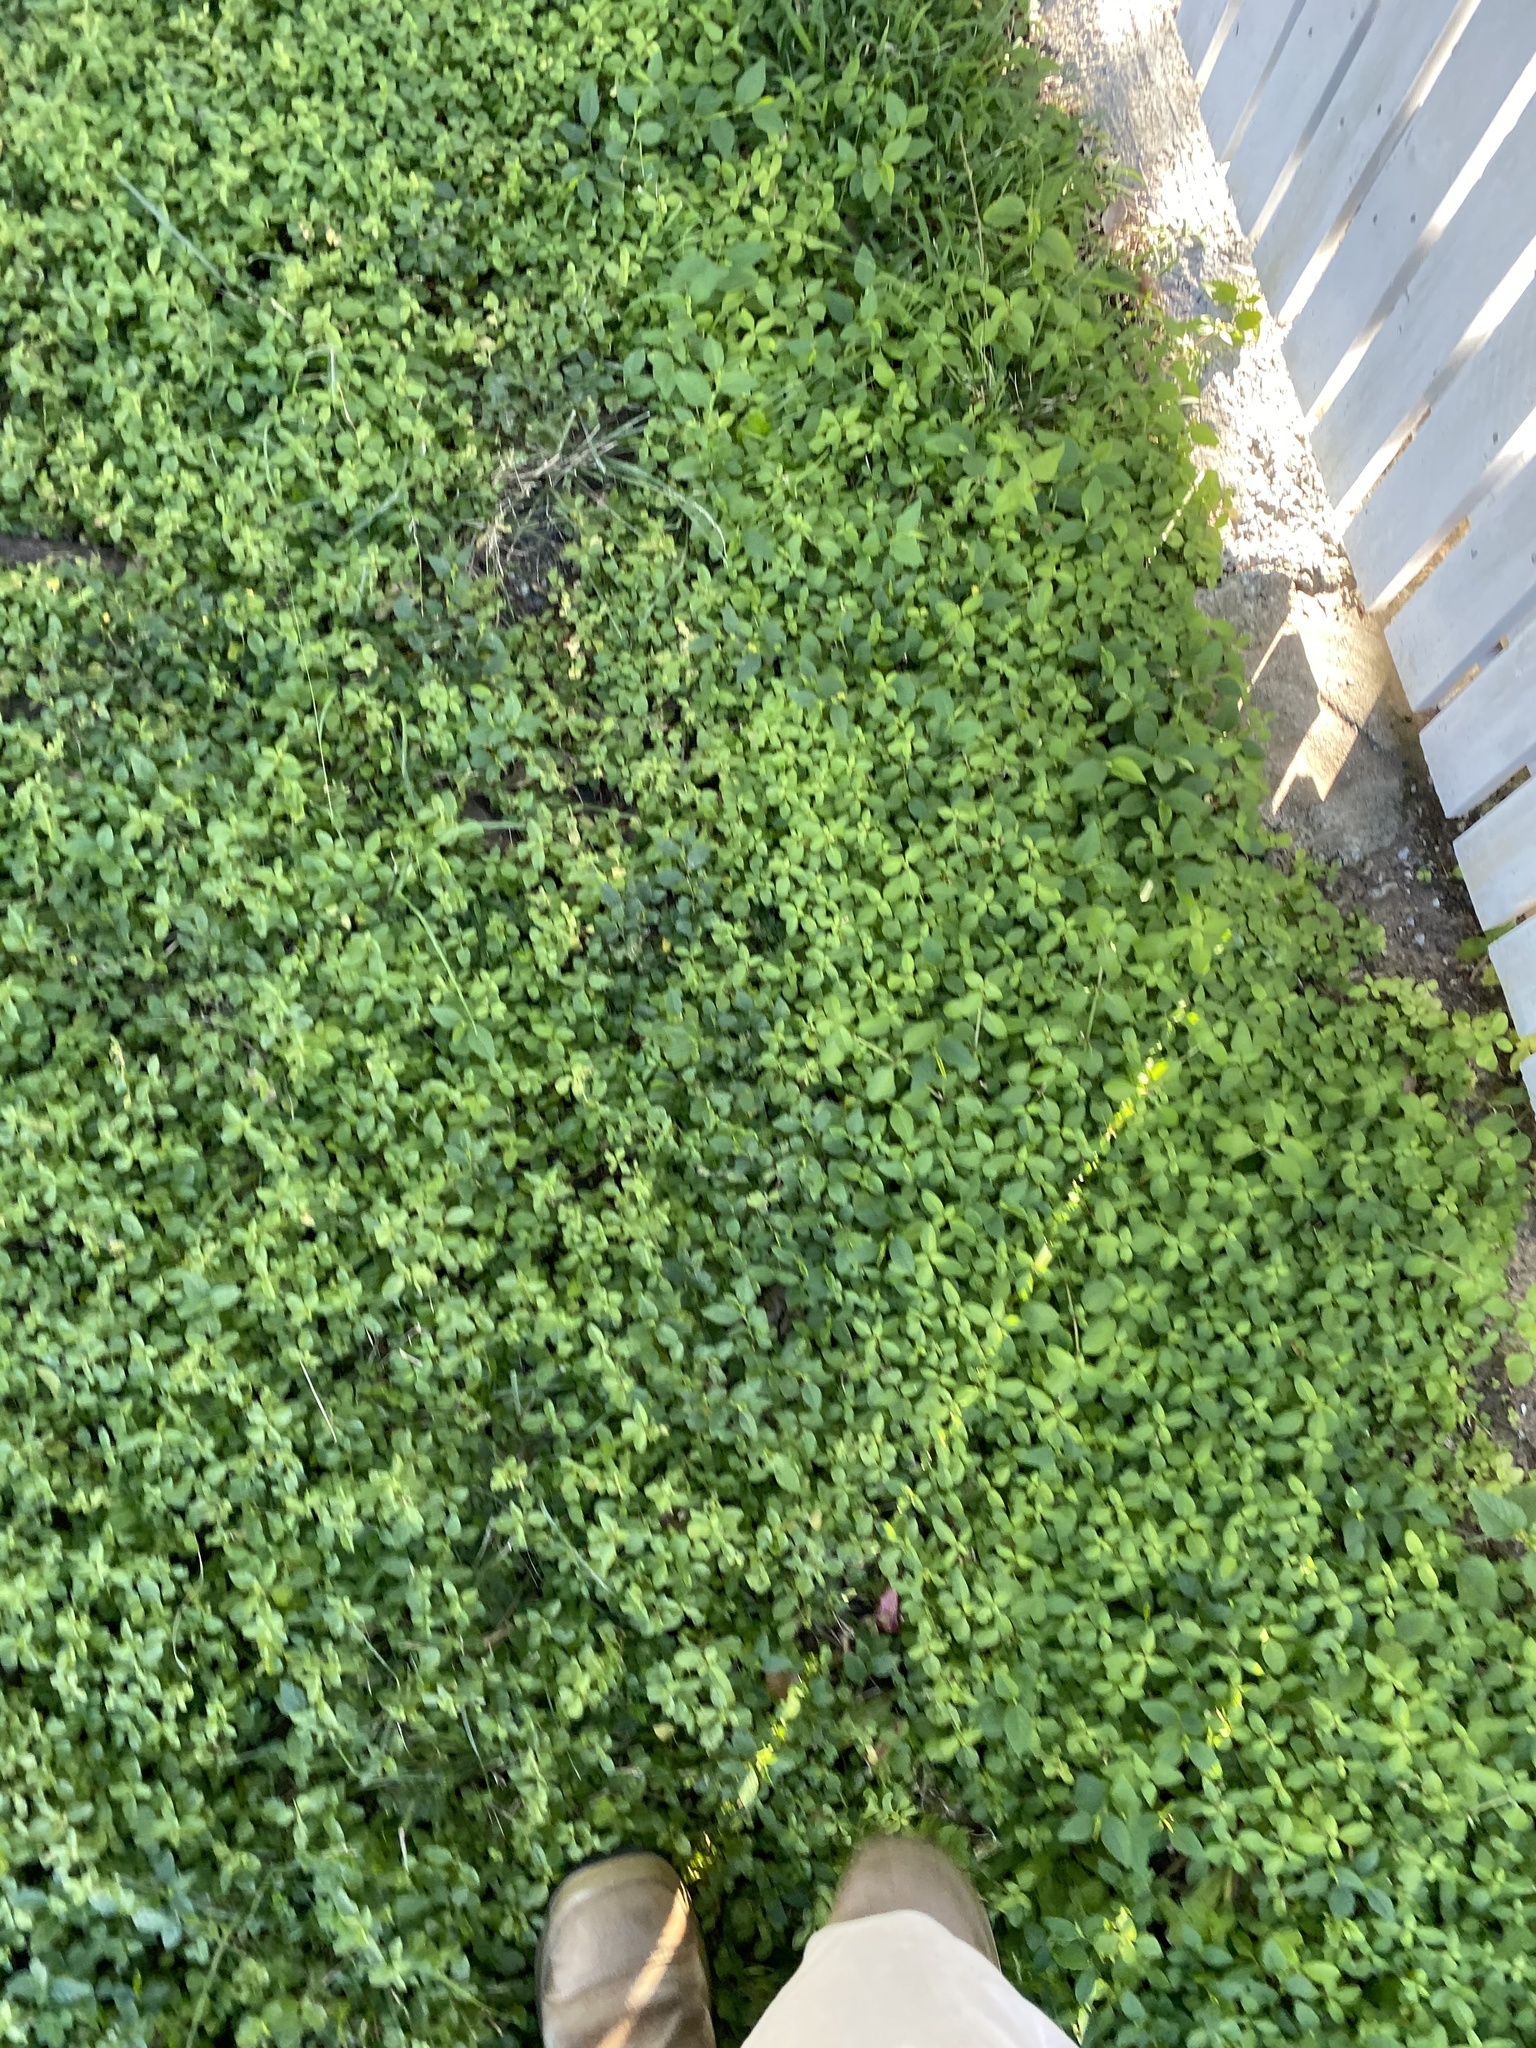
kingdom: Plantae
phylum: Tracheophyta
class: Magnoliopsida
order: Lamiales
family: Acanthaceae
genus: Hygrophila
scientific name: Hygrophila erecta
